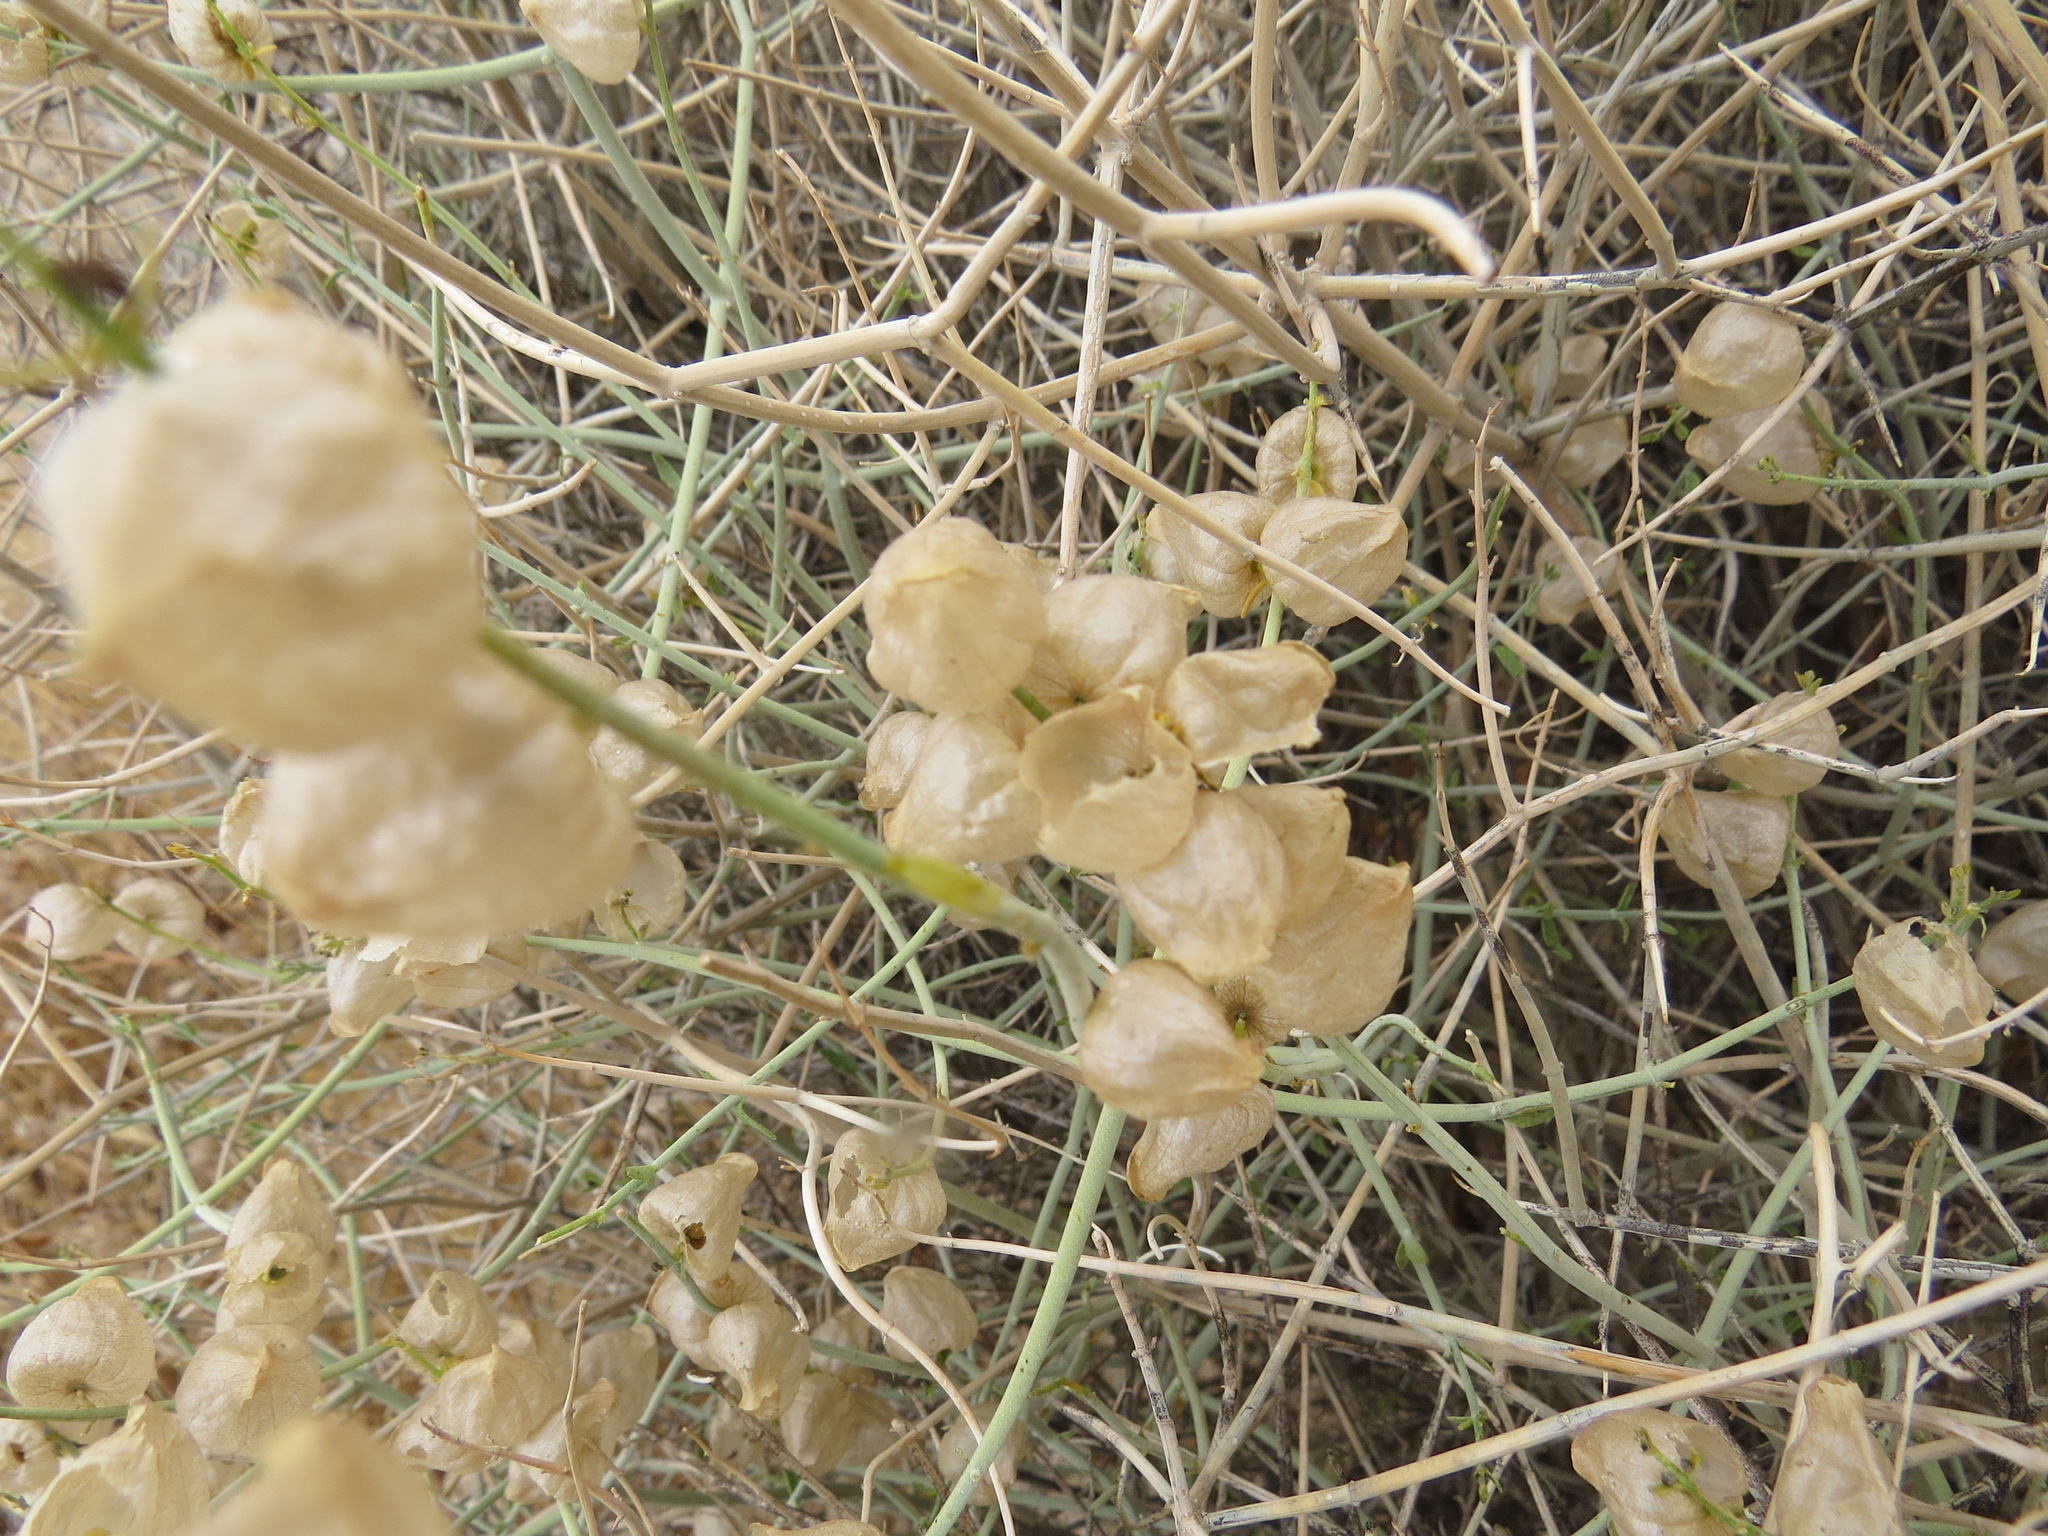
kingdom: Plantae
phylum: Tracheophyta
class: Magnoliopsida
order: Lamiales
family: Lamiaceae
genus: Scutellaria
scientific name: Scutellaria mexicana
